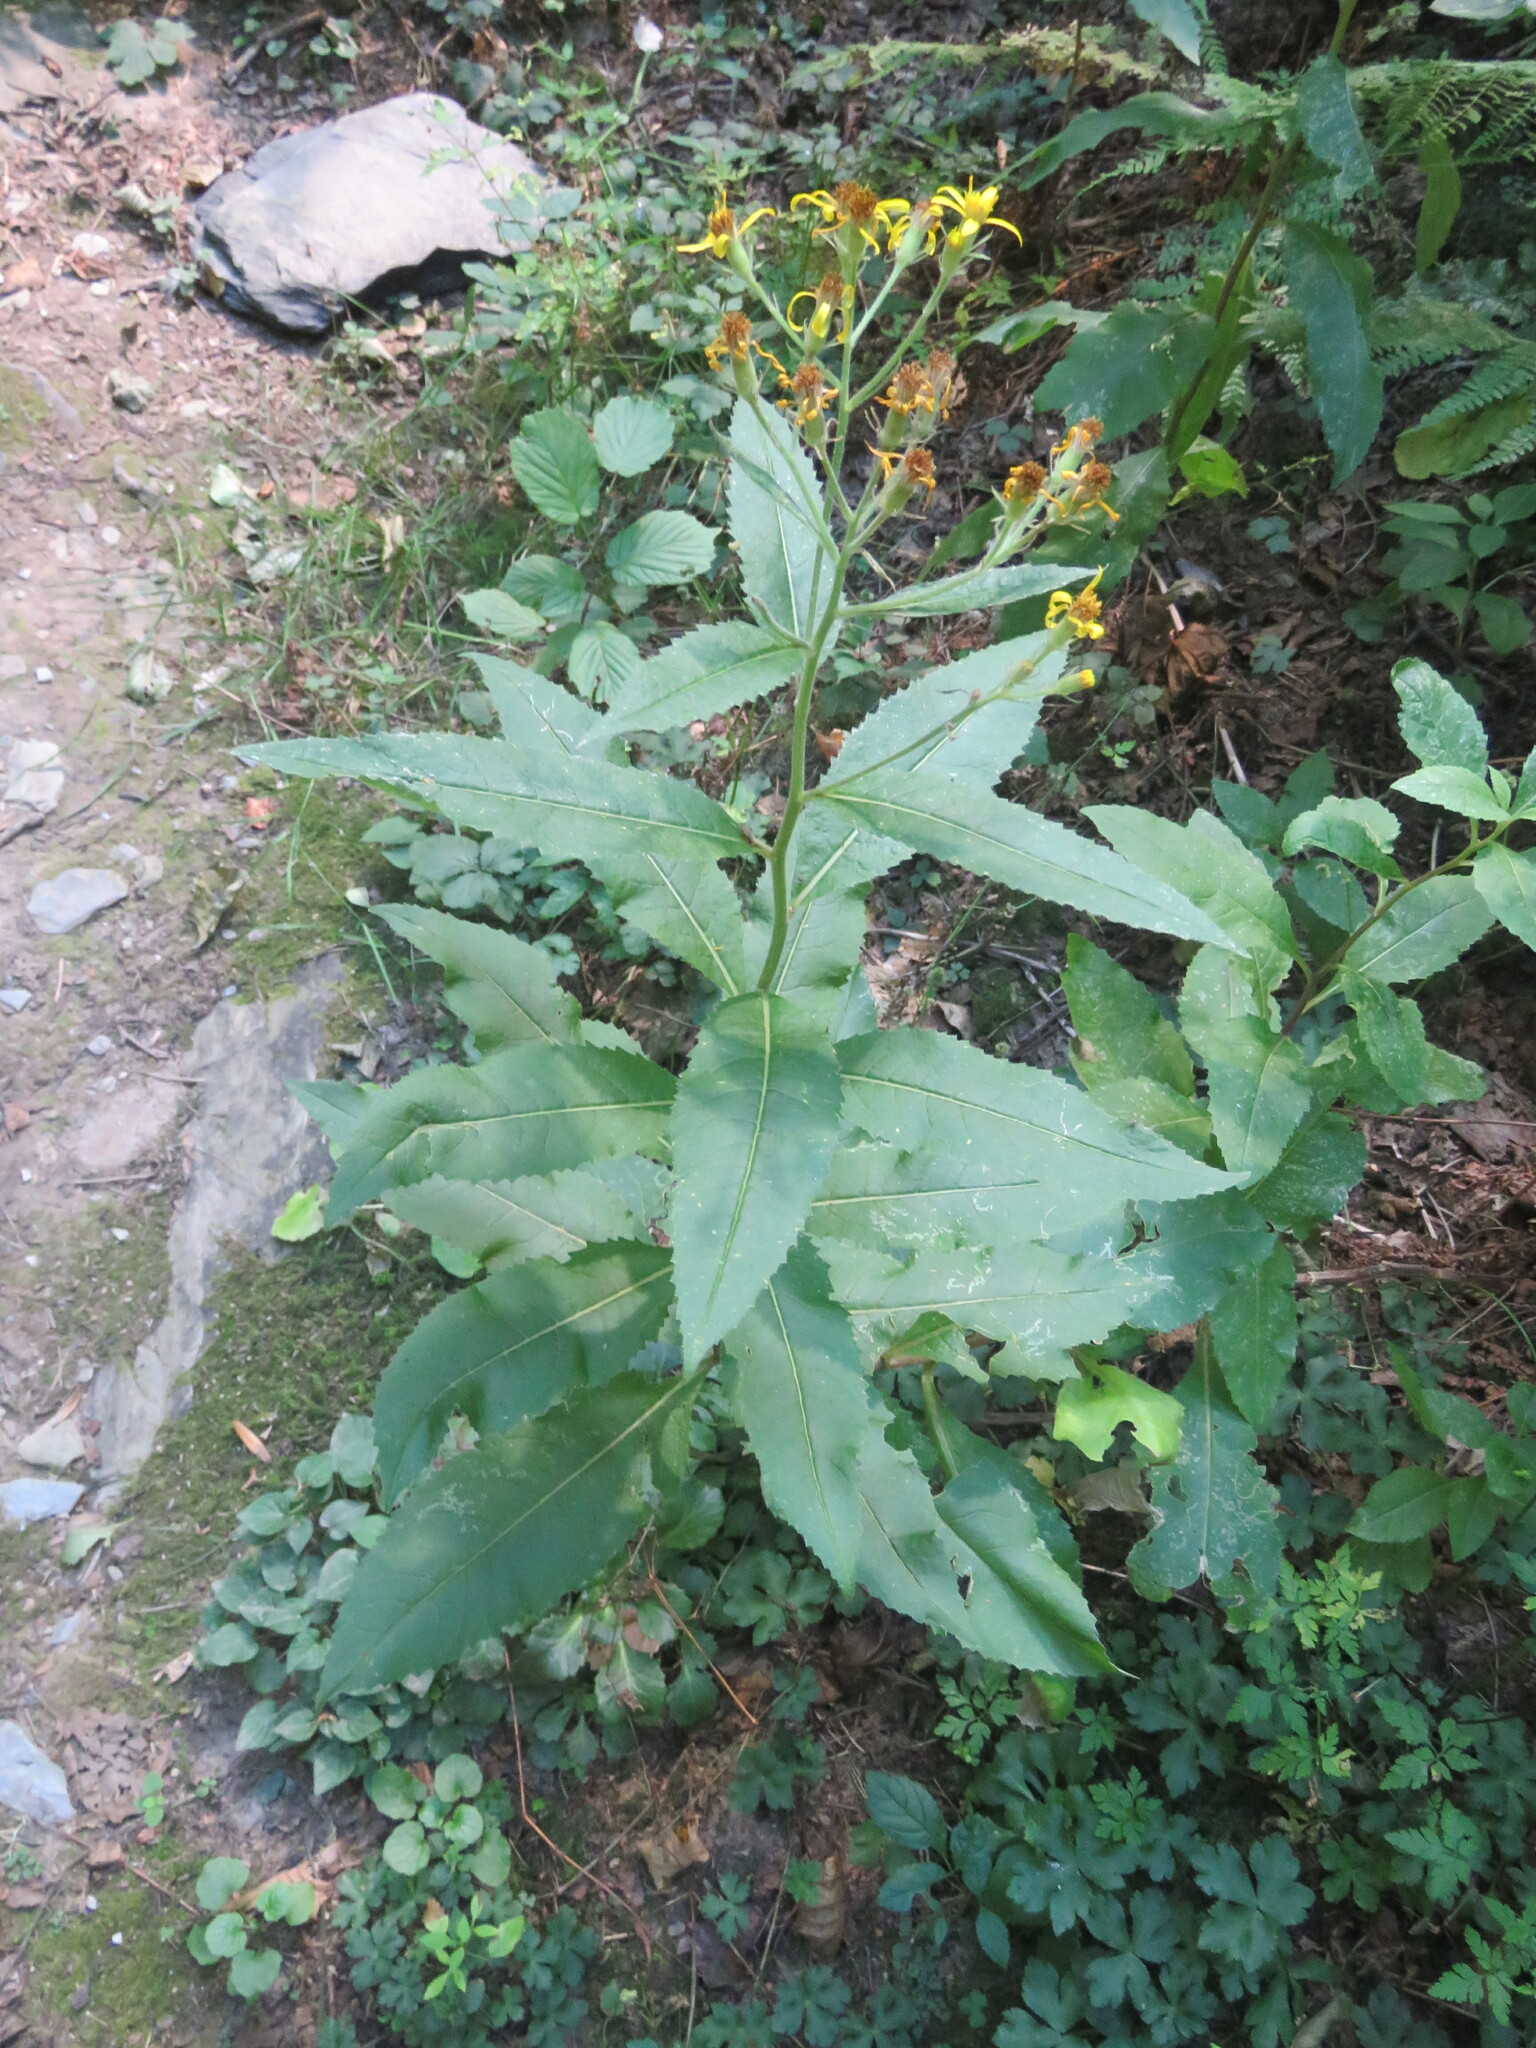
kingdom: Plantae
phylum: Tracheophyta
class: Magnoliopsida
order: Asterales
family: Asteraceae
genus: Senecio
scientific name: Senecio bayonnensis
